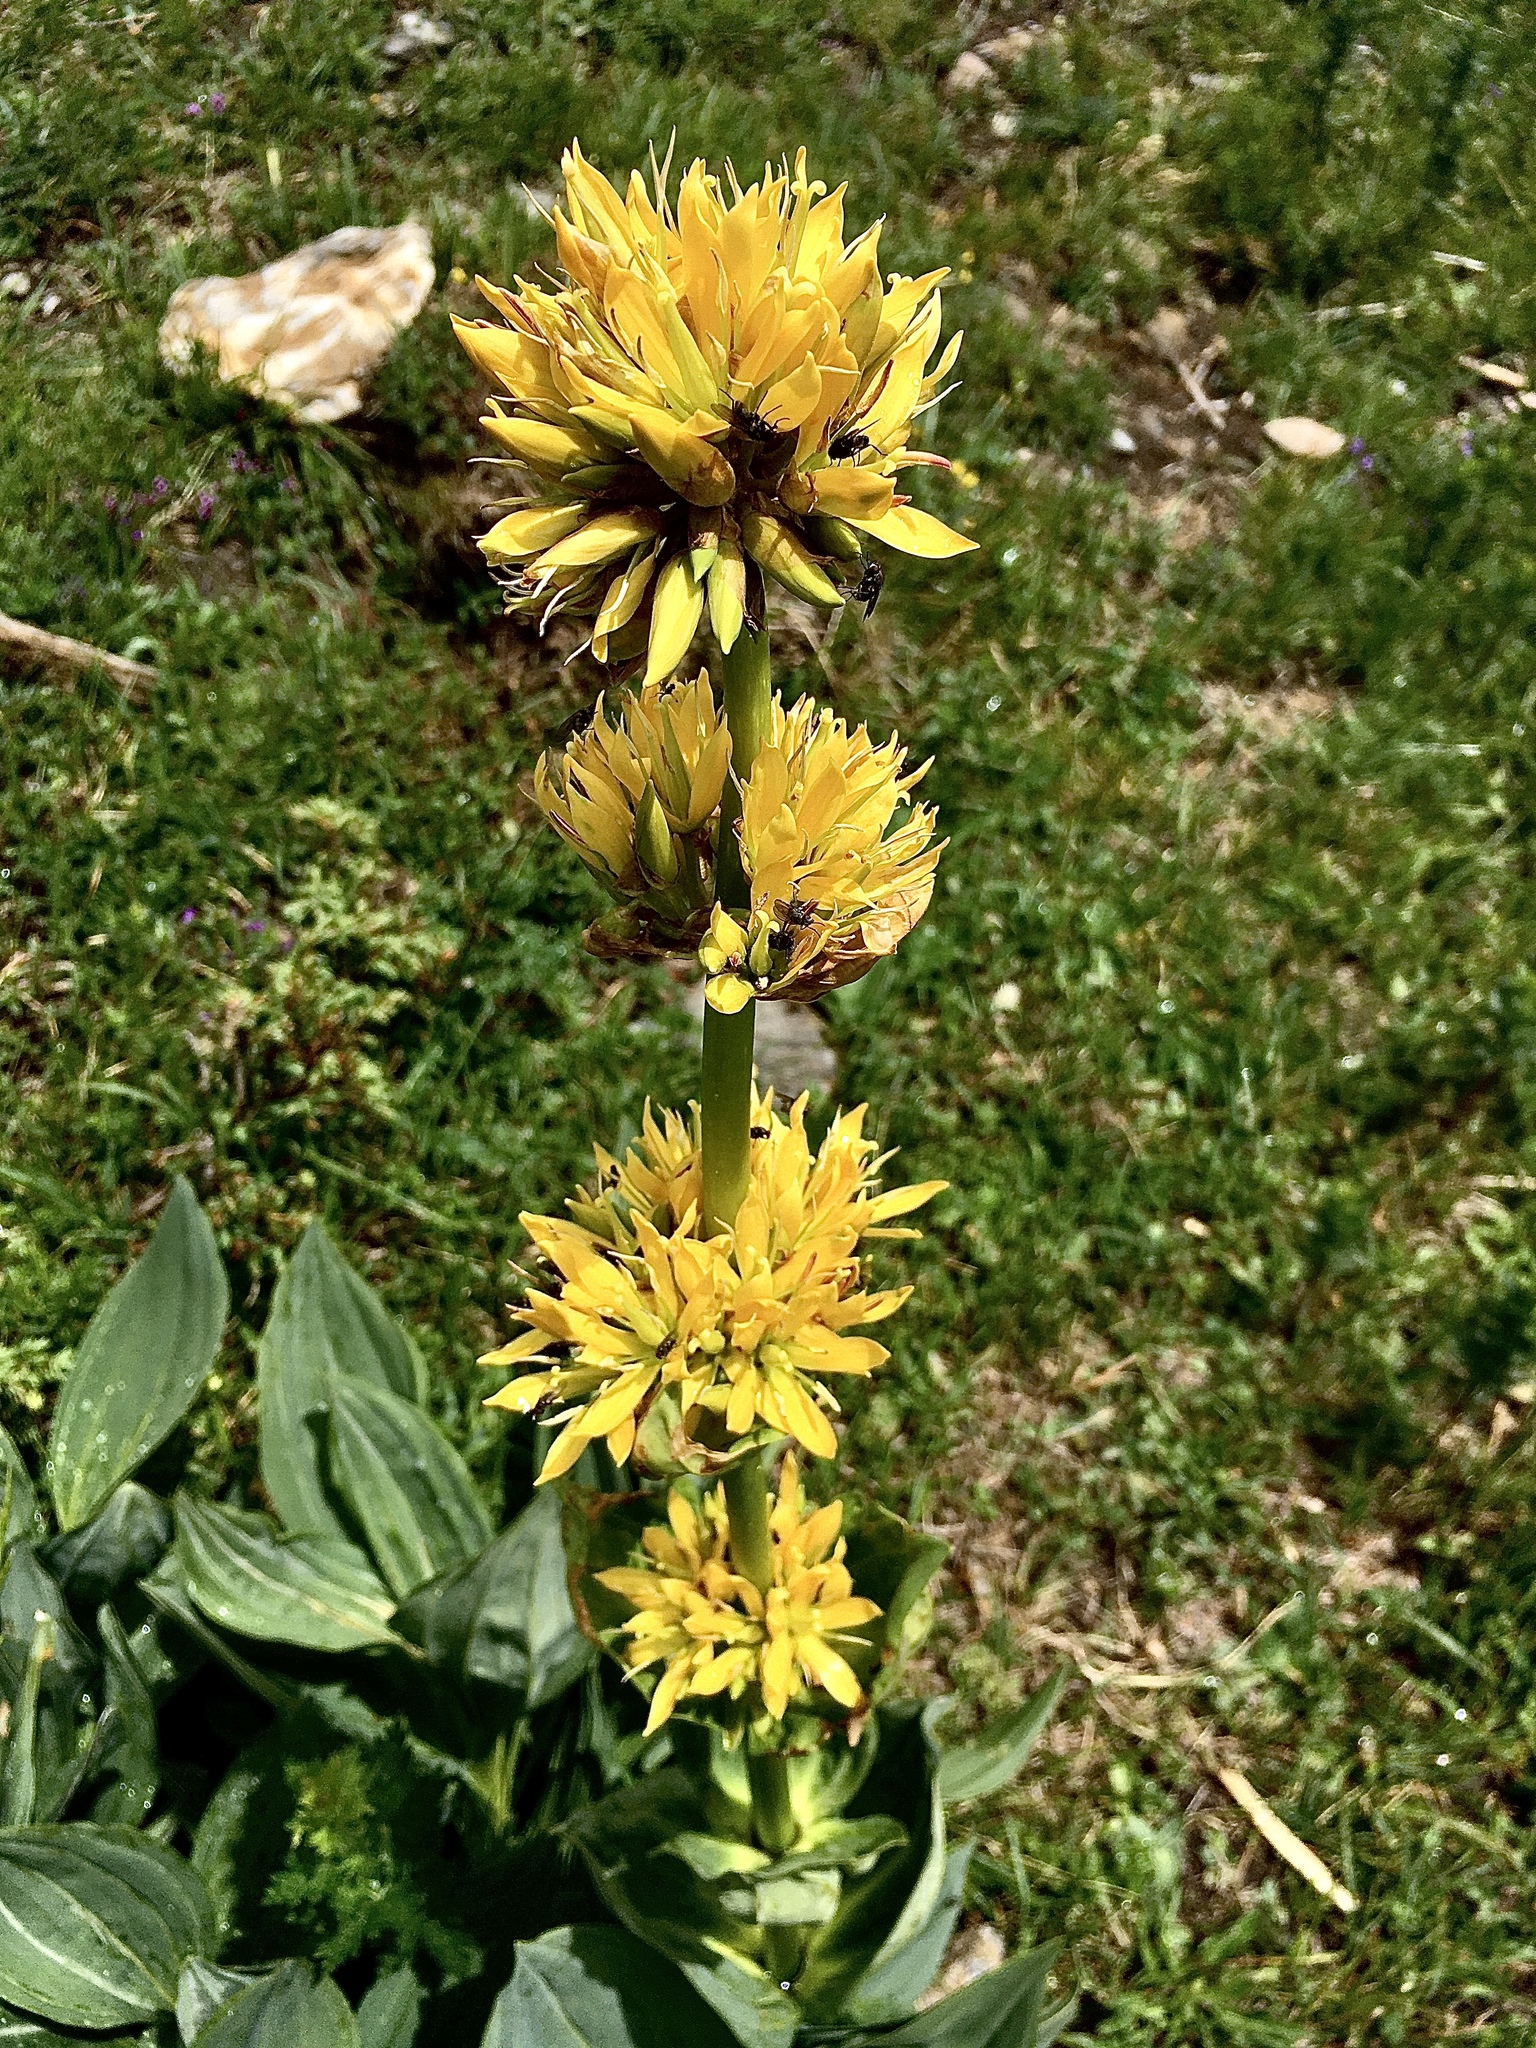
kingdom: Plantae
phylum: Tracheophyta
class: Magnoliopsida
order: Gentianales
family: Gentianaceae
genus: Gentiana
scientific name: Gentiana lutea
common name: Great yellow gentian
